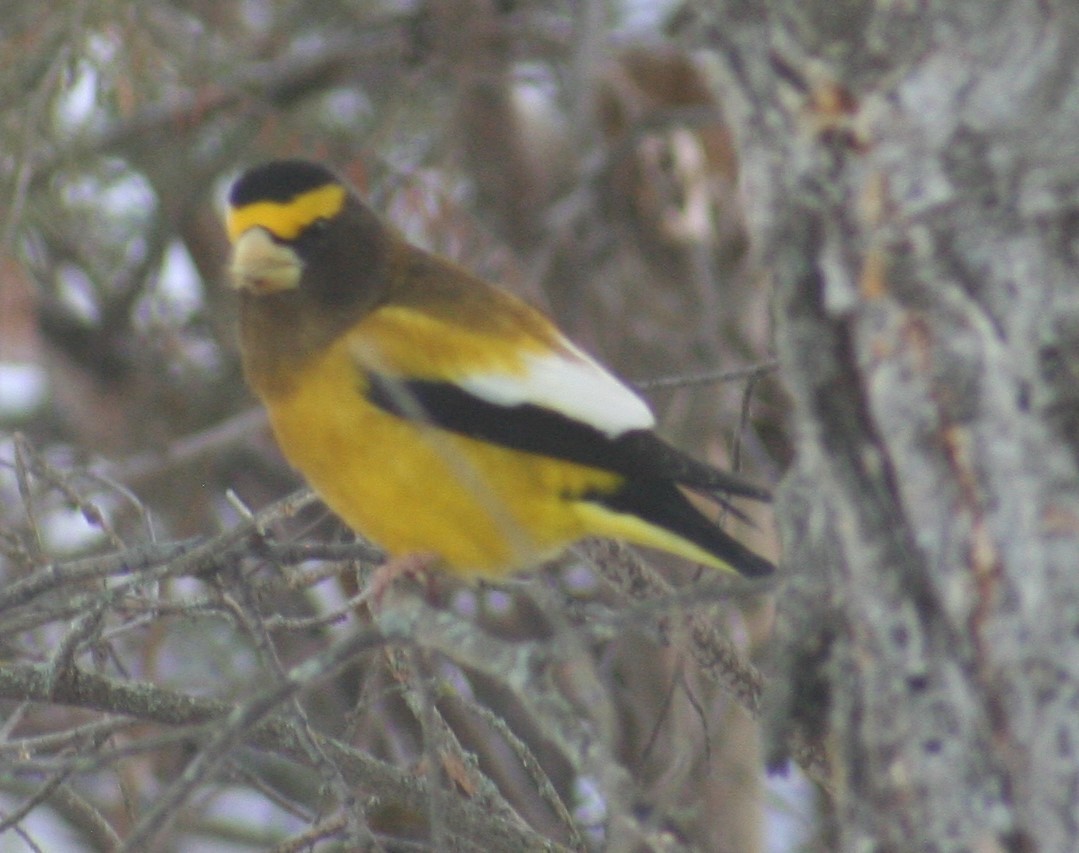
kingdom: Animalia
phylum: Chordata
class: Aves
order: Passeriformes
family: Fringillidae
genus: Hesperiphona
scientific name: Hesperiphona vespertina
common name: Evening grosbeak
